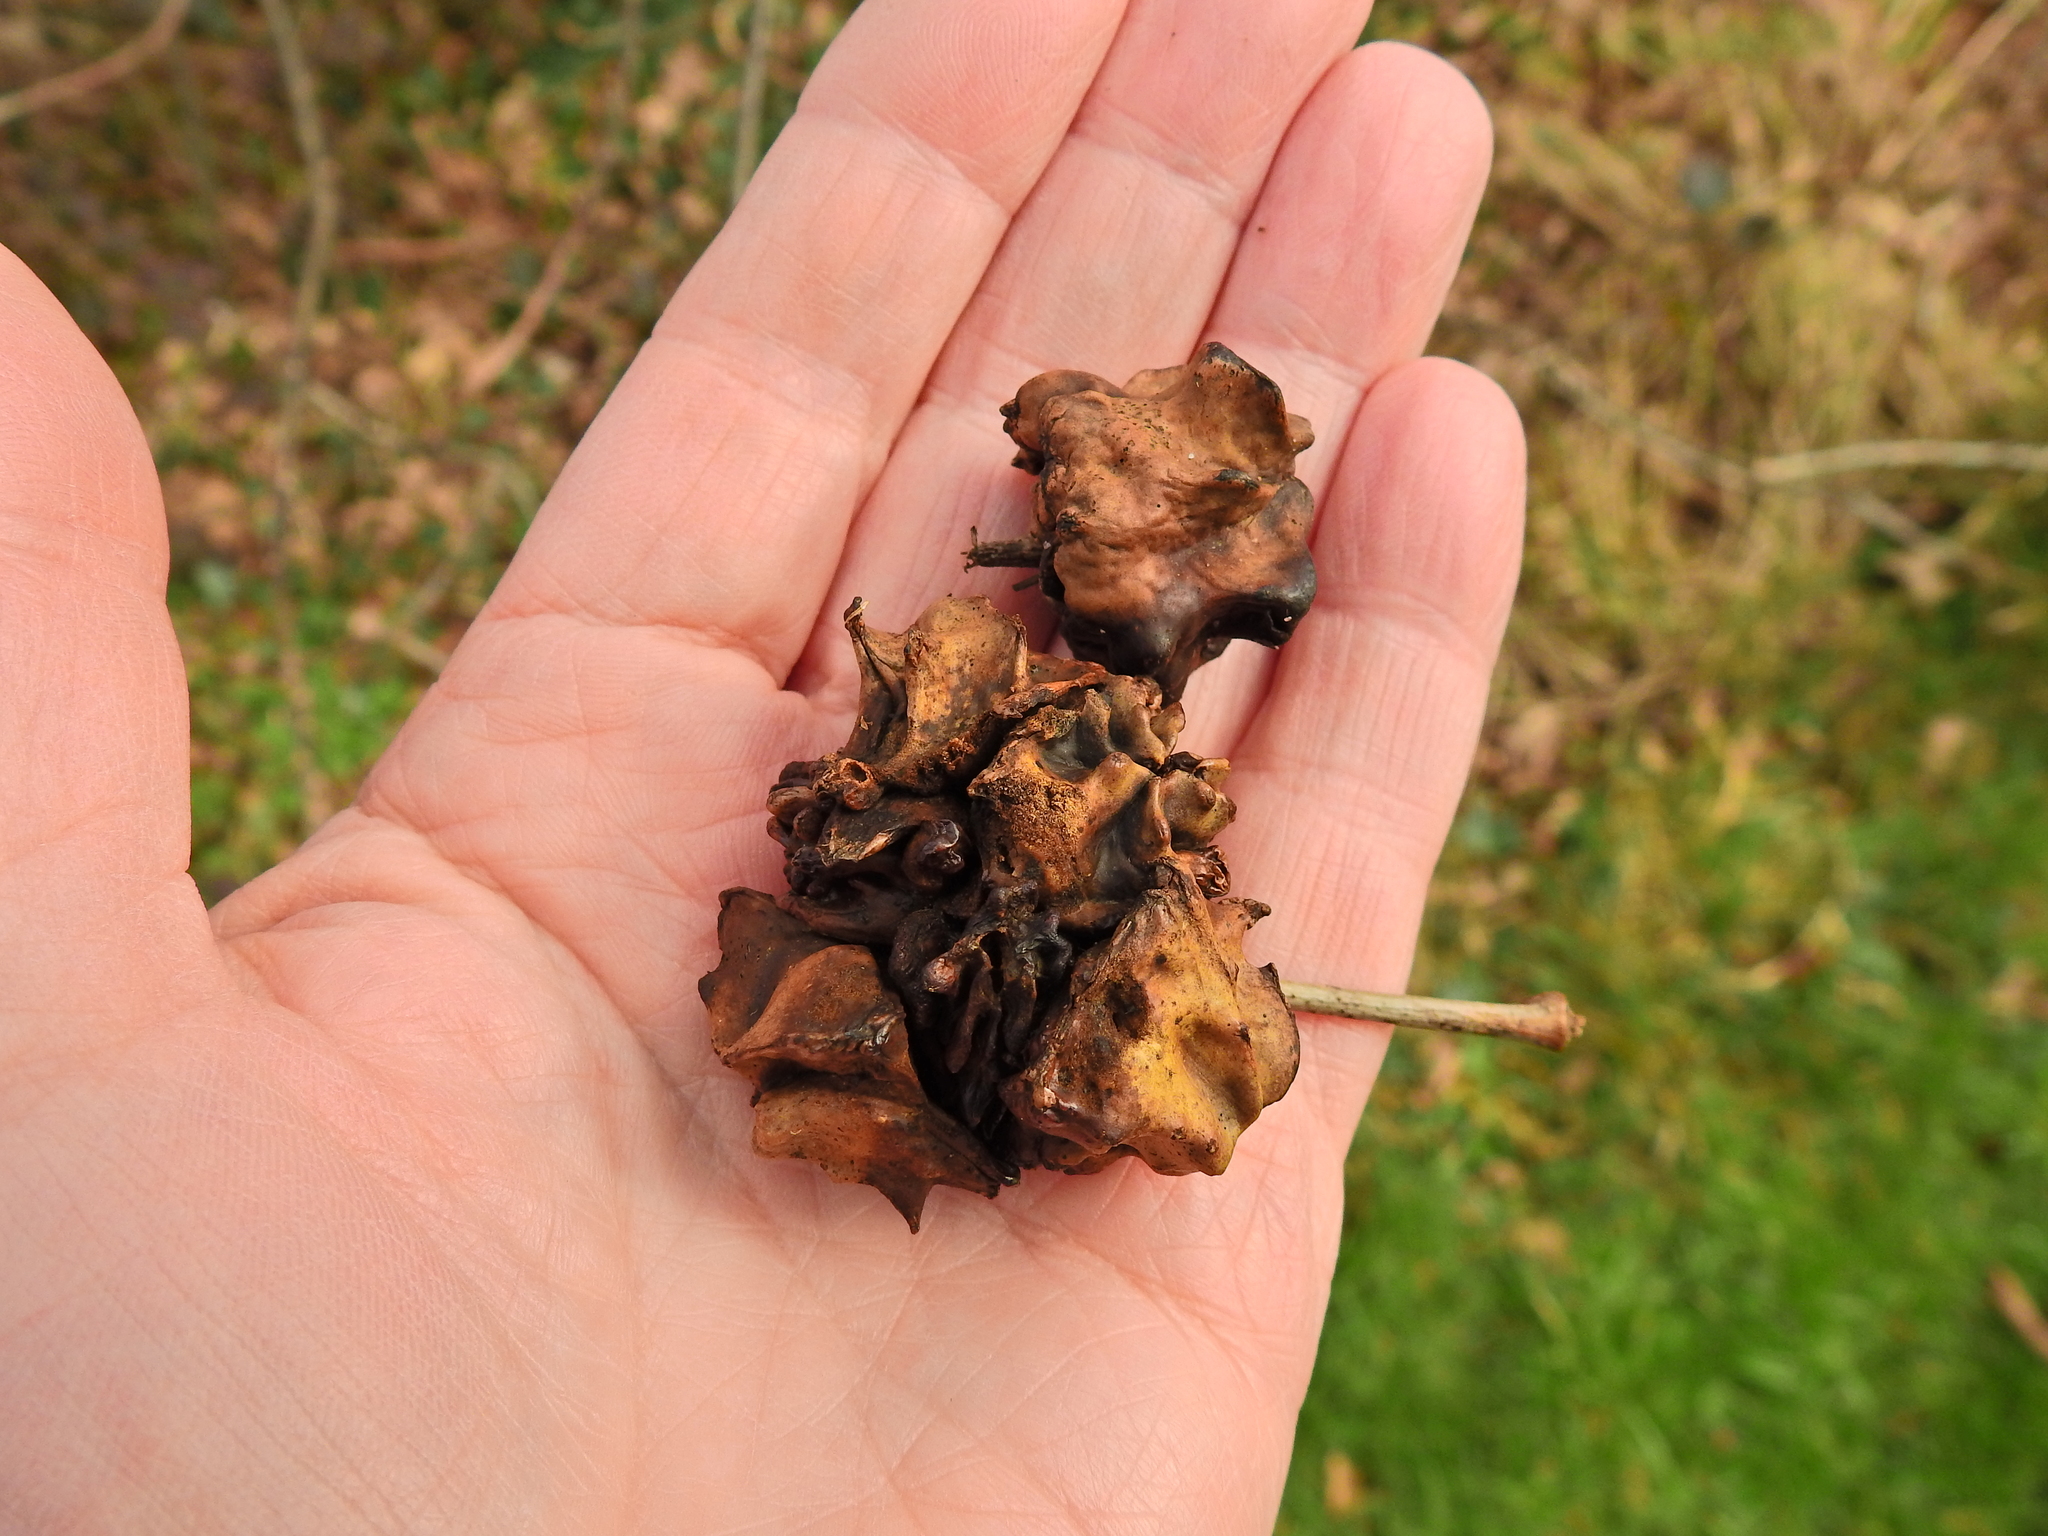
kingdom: Animalia
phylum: Arthropoda
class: Insecta
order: Hymenoptera
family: Cynipidae
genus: Andricus
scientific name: Andricus quercuscalicis
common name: Knopper gall
